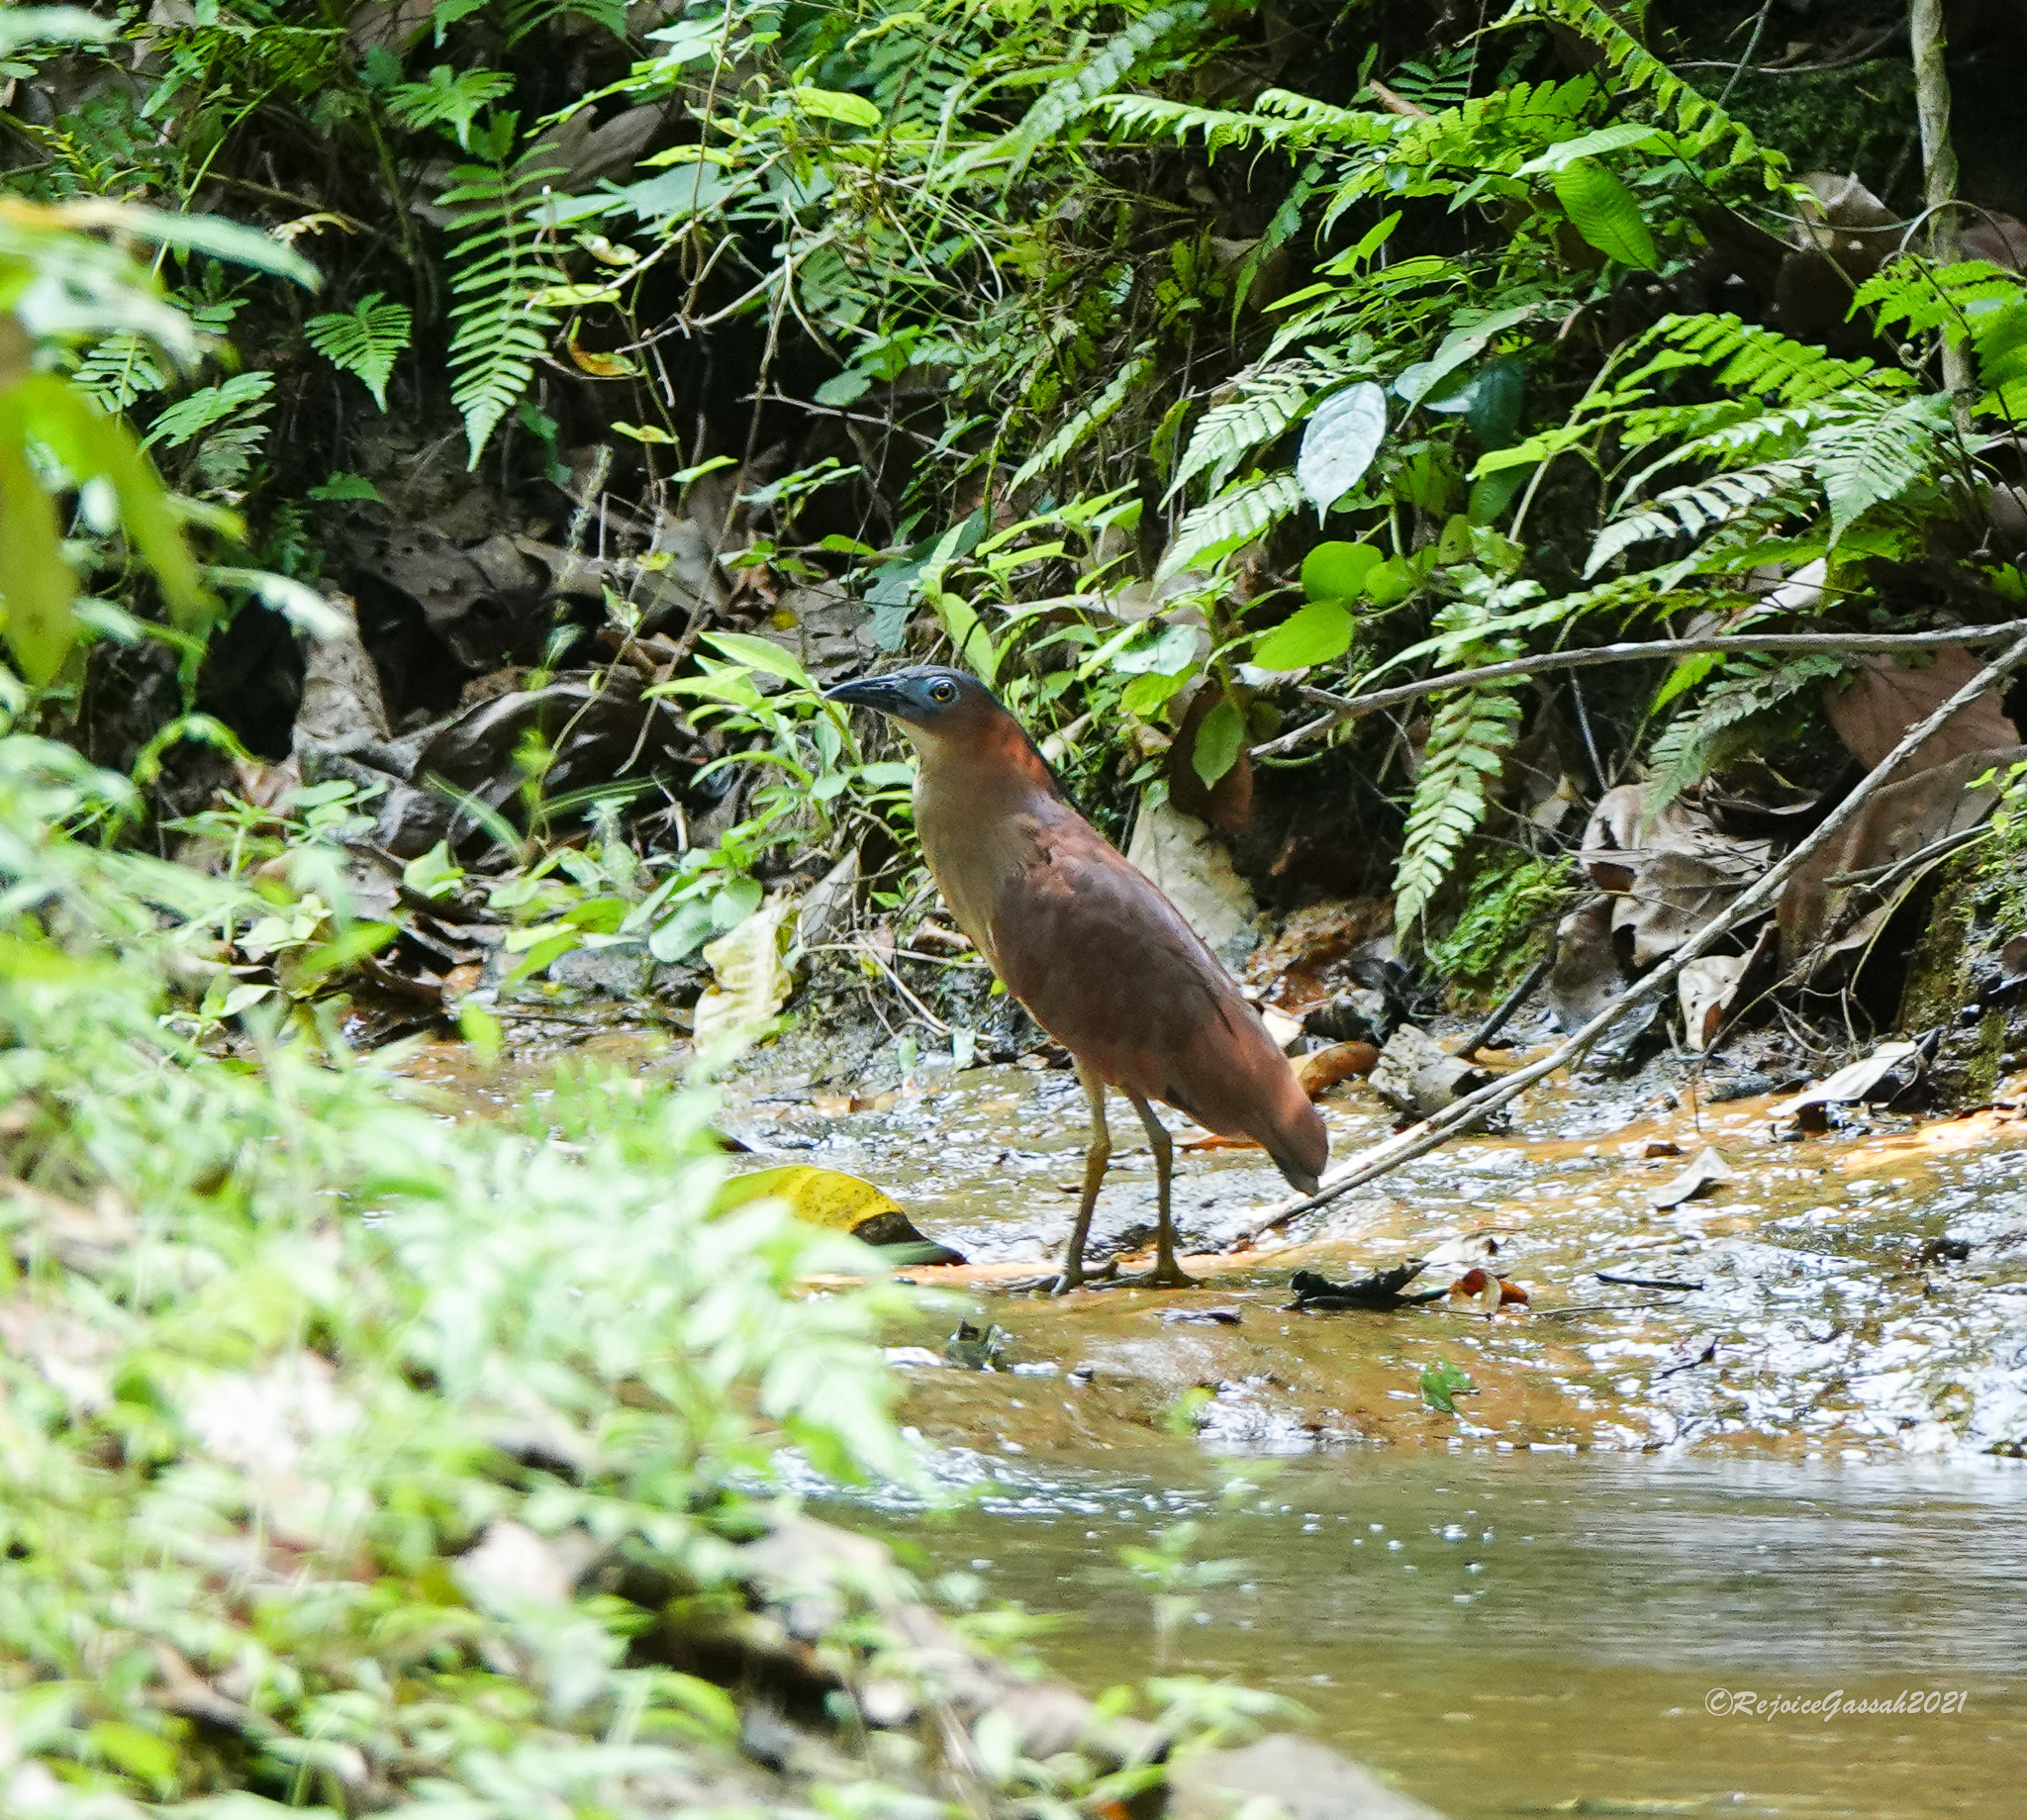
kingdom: Animalia
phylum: Chordata
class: Aves
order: Pelecaniformes
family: Ardeidae
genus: Gorsachius
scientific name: Gorsachius melanolophus
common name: Malayan night heron
